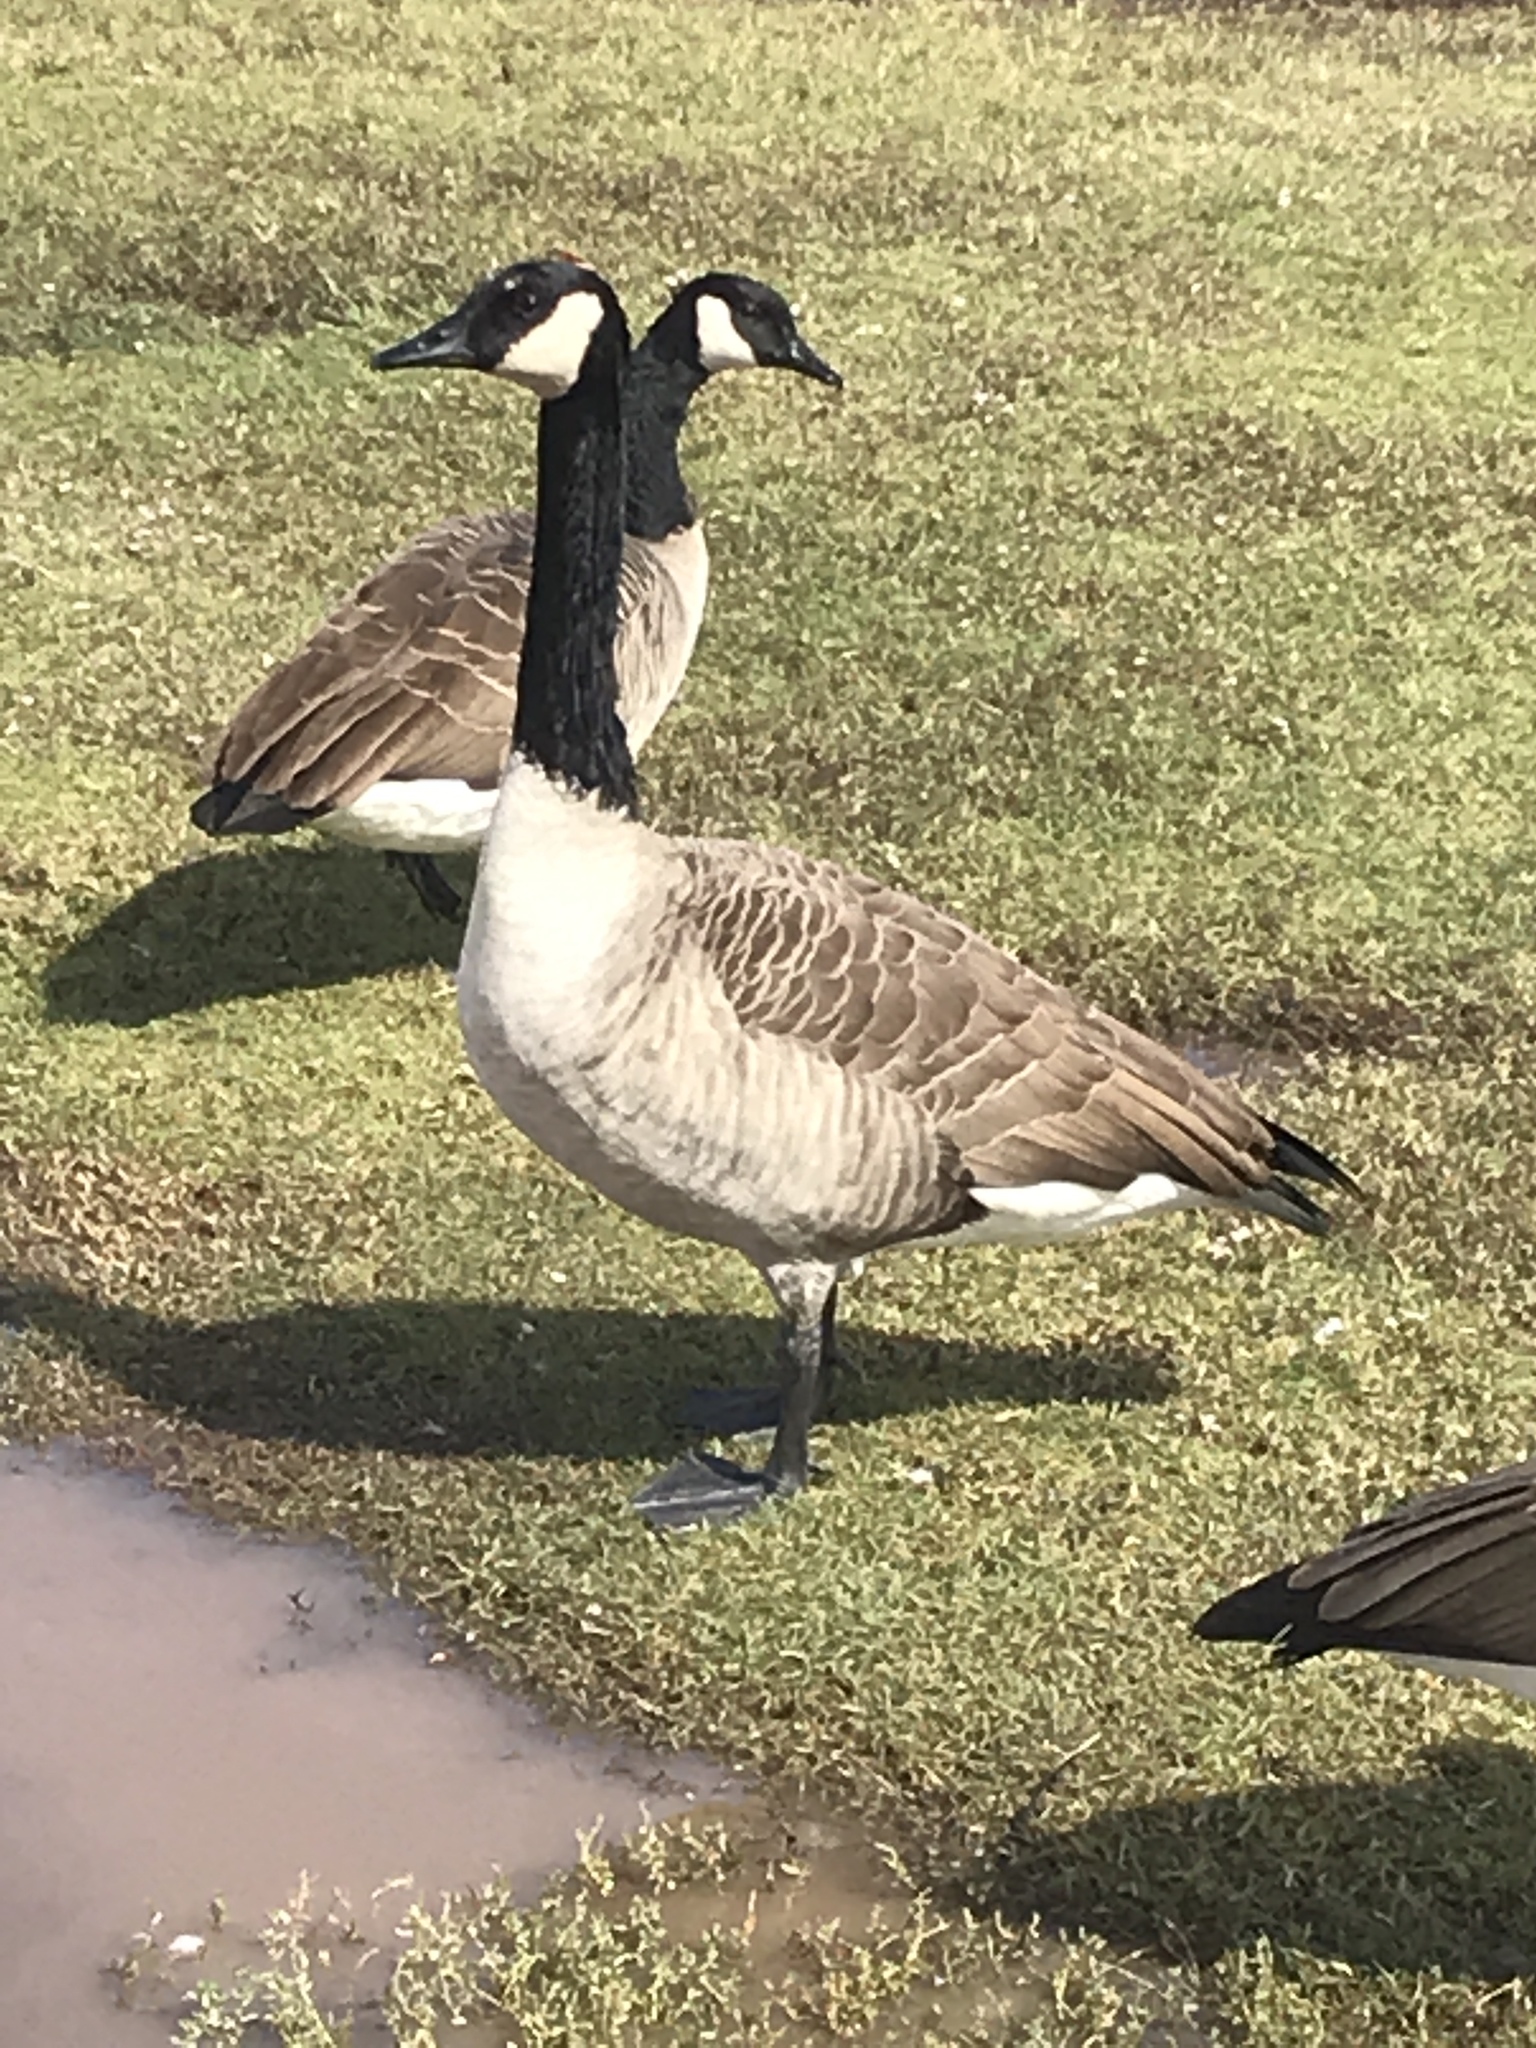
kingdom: Animalia
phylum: Chordata
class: Aves
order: Anseriformes
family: Anatidae
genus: Branta
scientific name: Branta canadensis
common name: Canada goose
